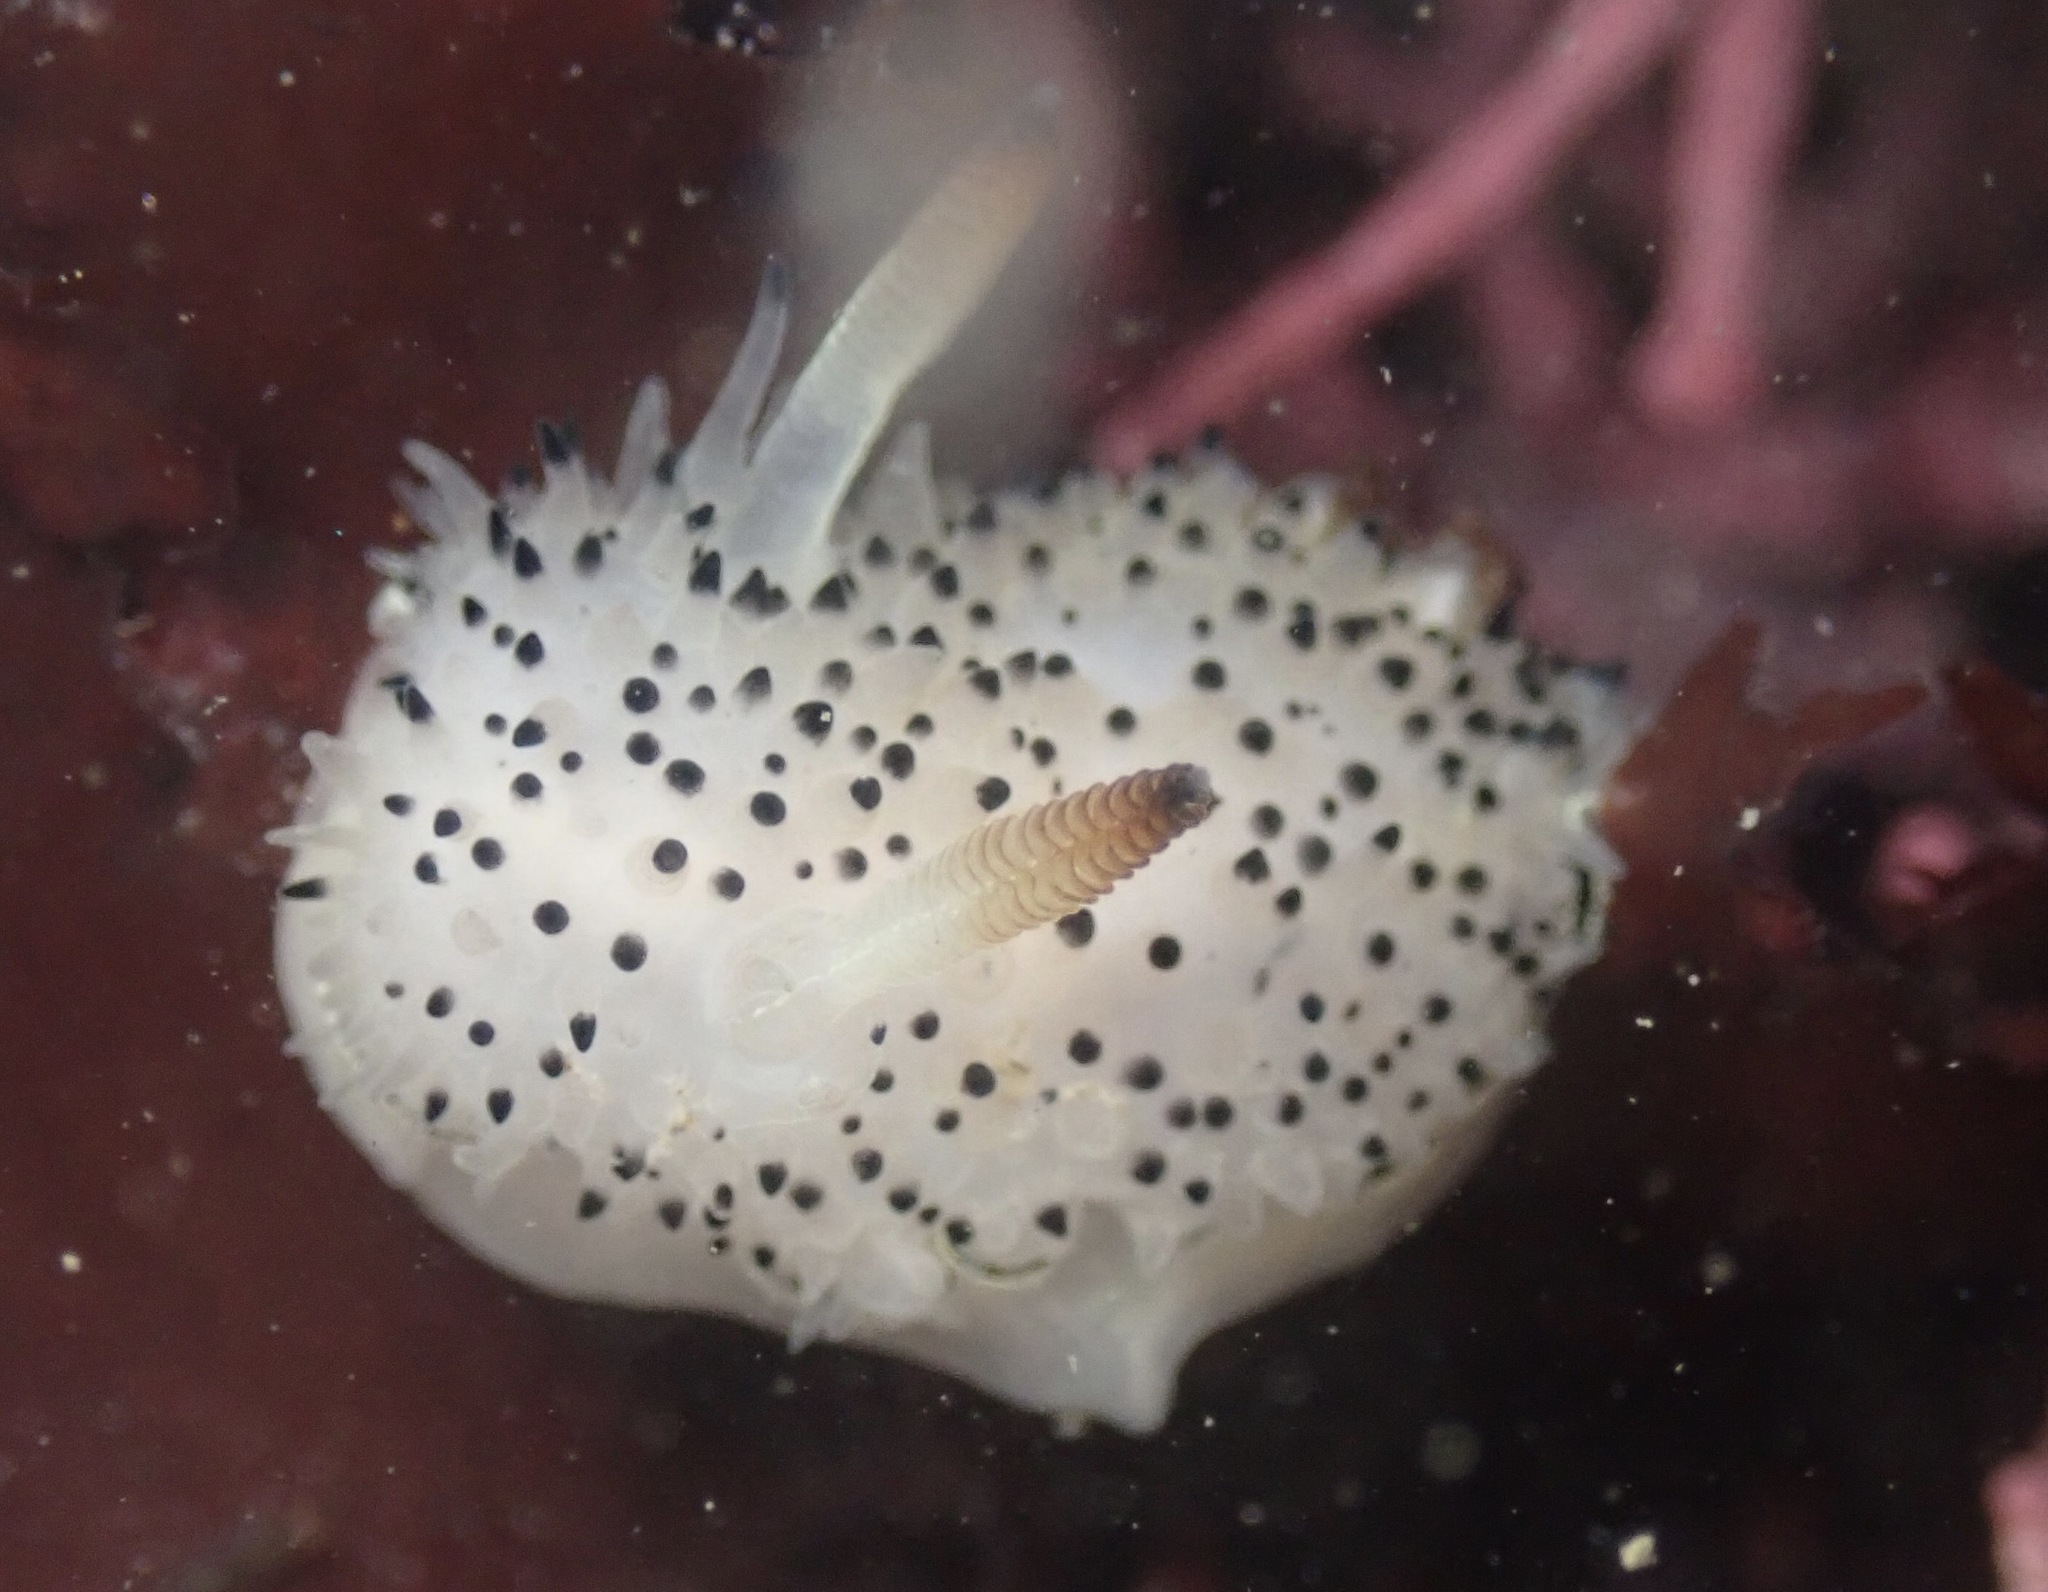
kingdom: Animalia
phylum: Mollusca
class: Gastropoda
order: Nudibranchia
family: Onchidorididae
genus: Acanthodoris
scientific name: Acanthodoris rhodoceras
